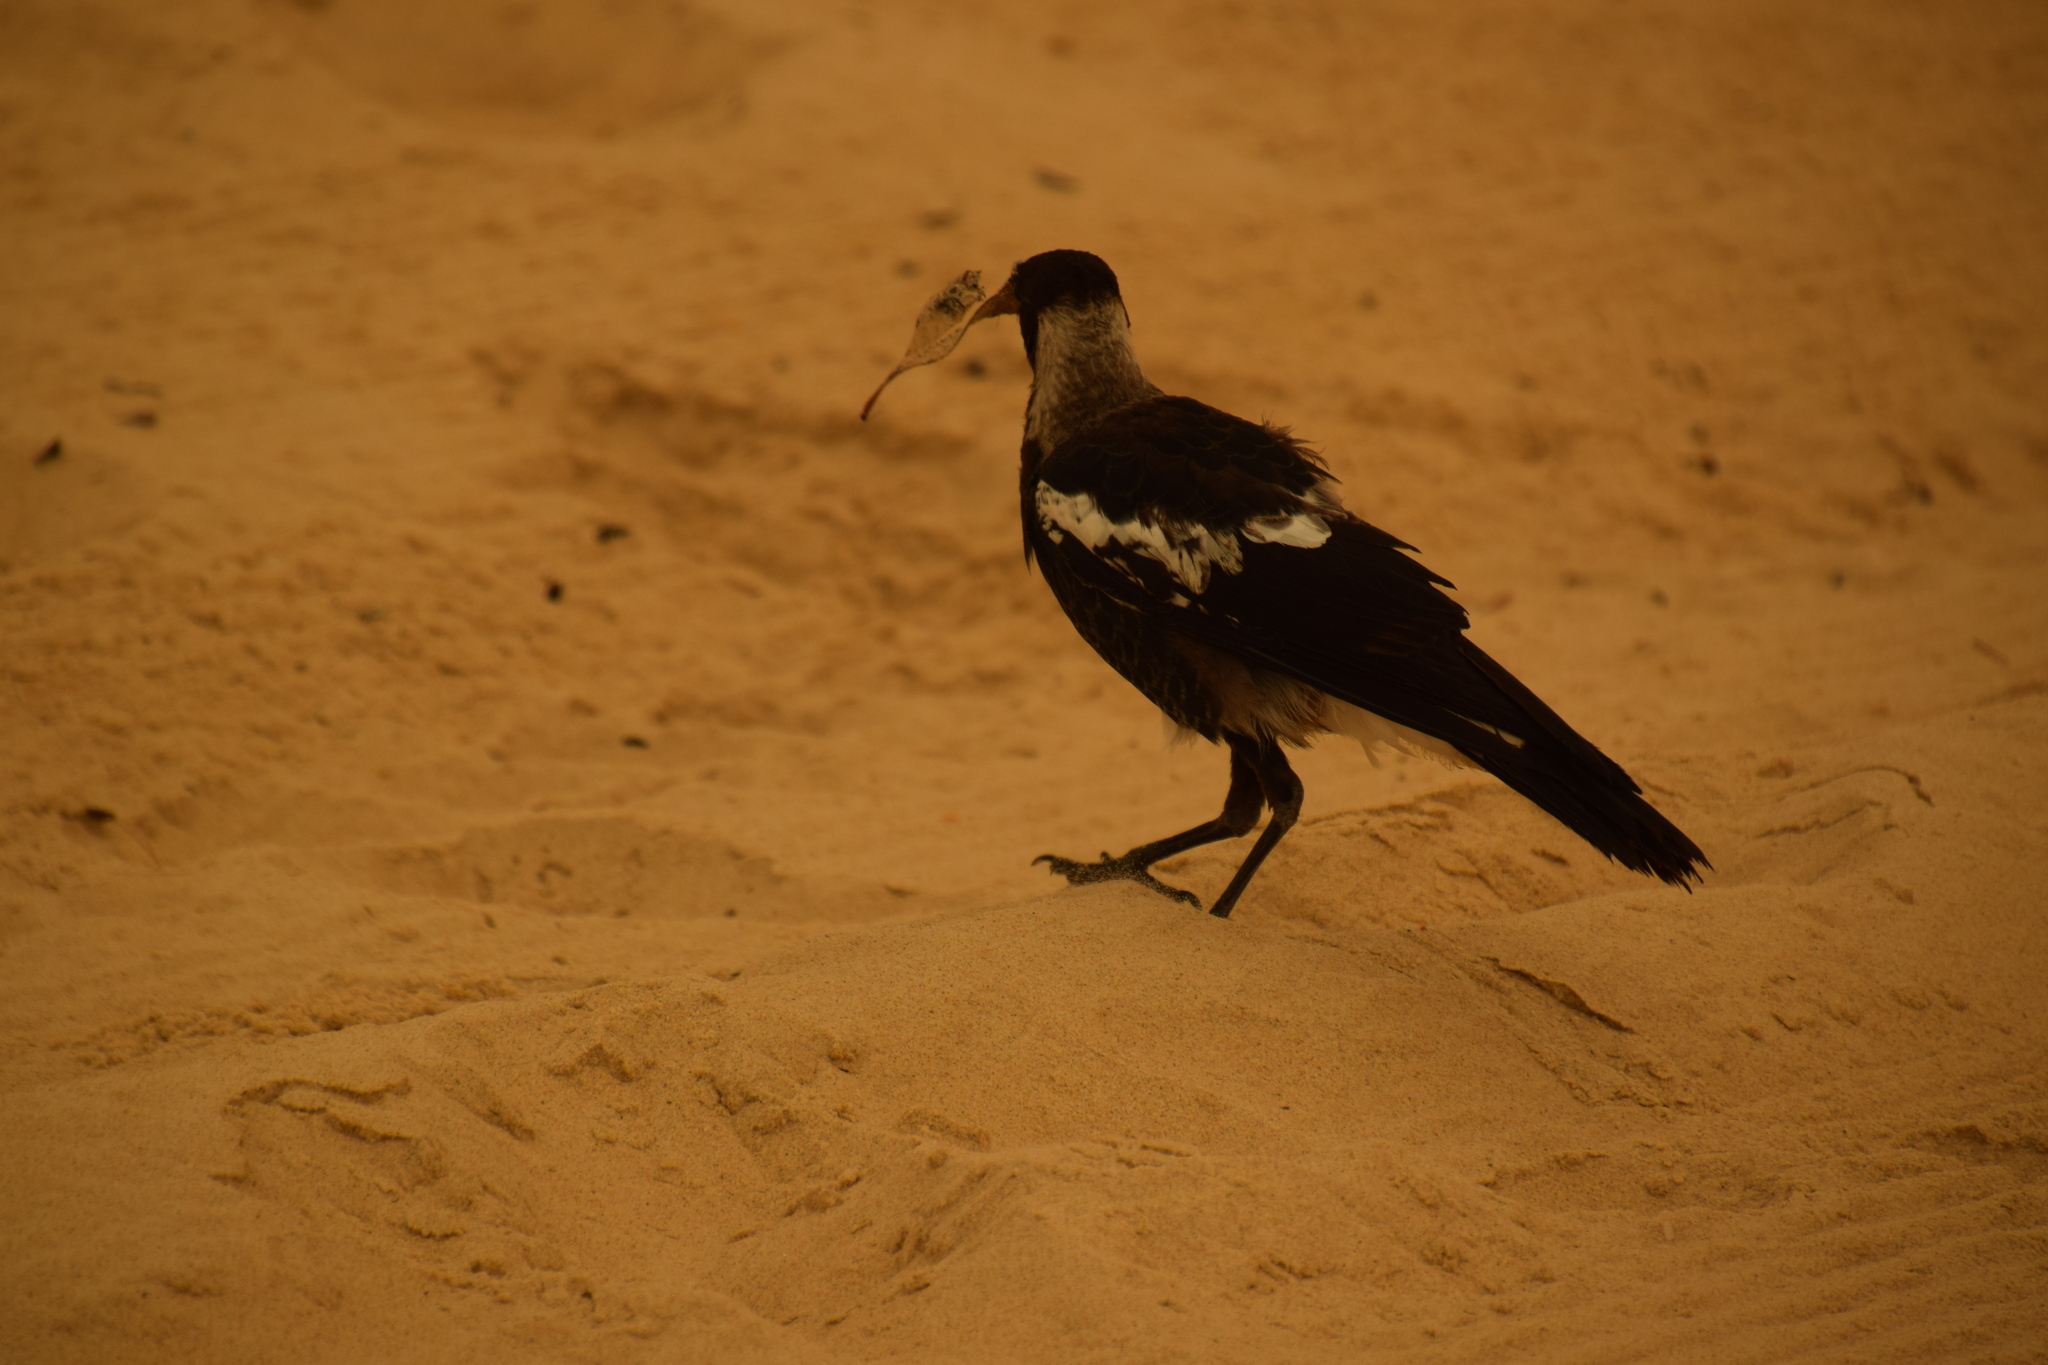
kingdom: Animalia
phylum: Chordata
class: Aves
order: Passeriformes
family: Cracticidae
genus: Gymnorhina
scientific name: Gymnorhina tibicen
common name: Australian magpie
